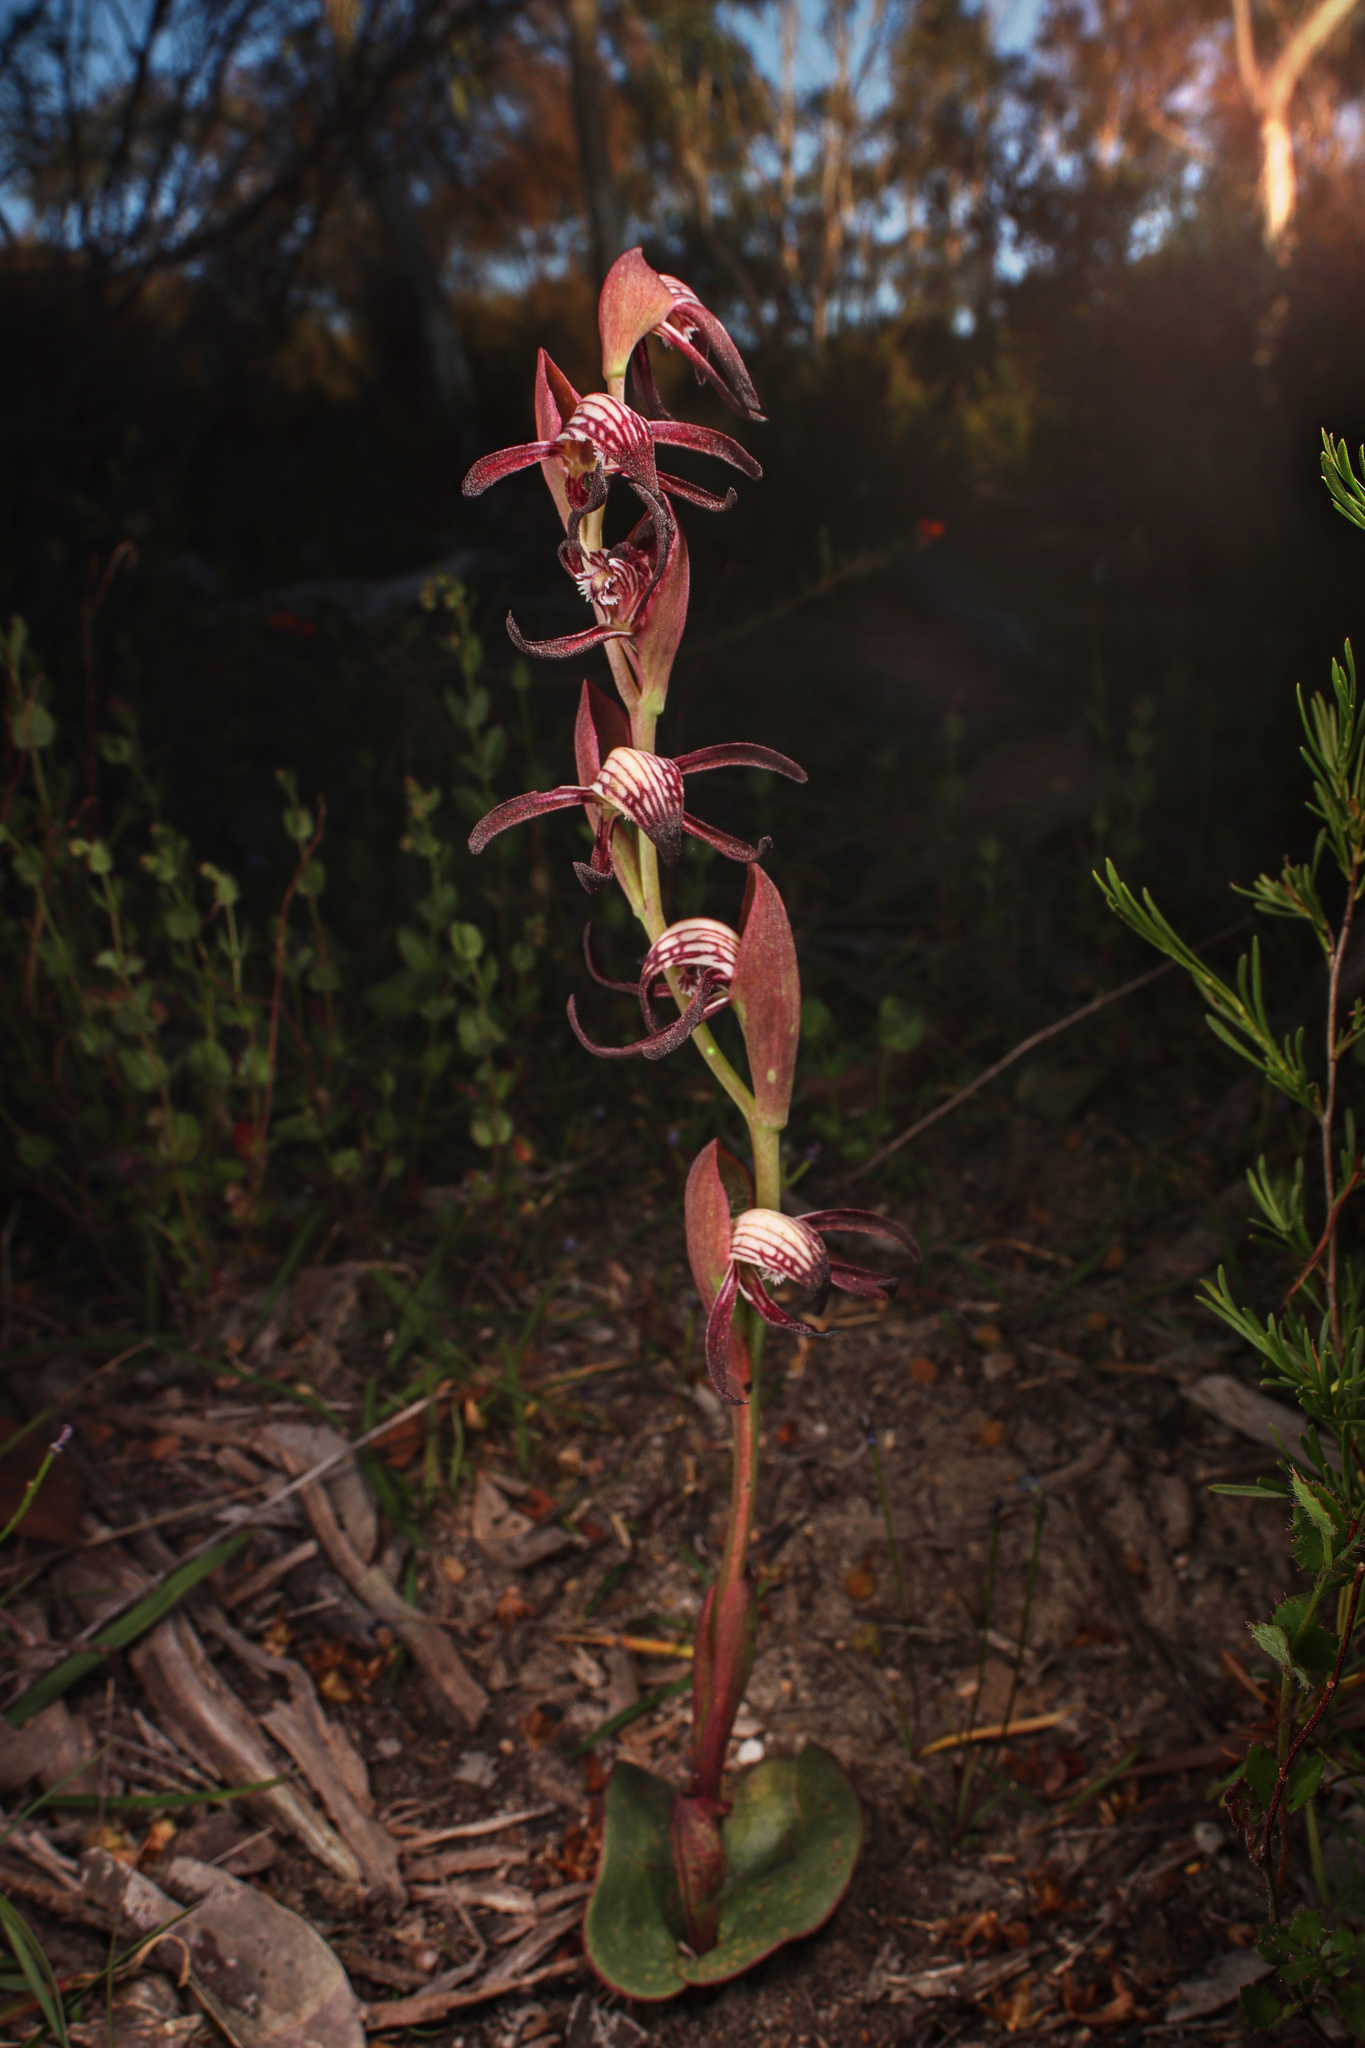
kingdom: Plantae
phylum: Tracheophyta
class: Liliopsida
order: Asparagales
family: Orchidaceae
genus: Pyrorchis
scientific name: Pyrorchis nigricans
